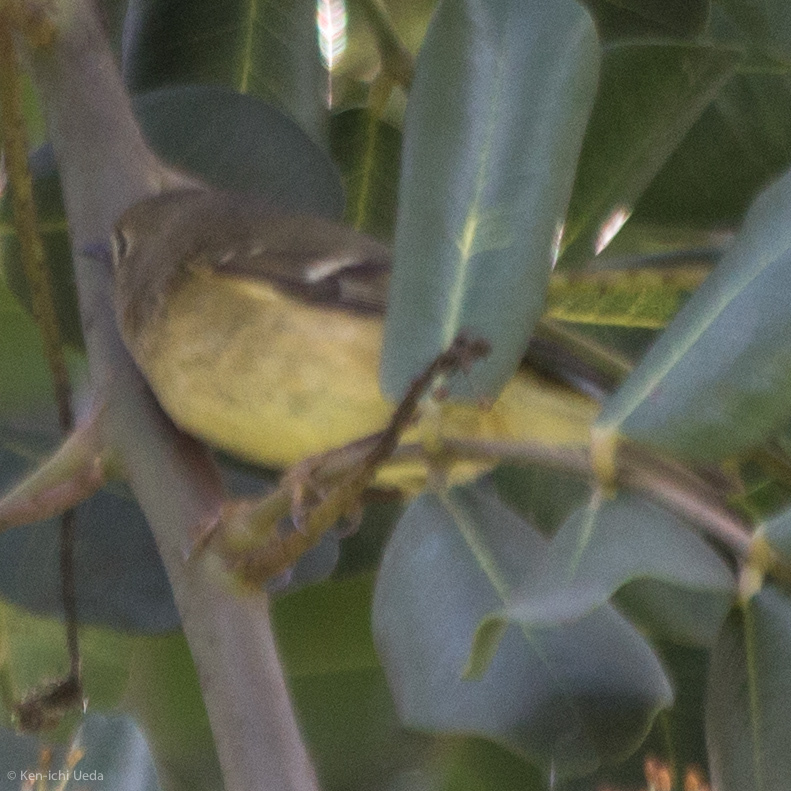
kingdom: Animalia
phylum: Chordata
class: Aves
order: Passeriformes
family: Regulidae
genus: Regulus
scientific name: Regulus calendula
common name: Ruby-crowned kinglet
